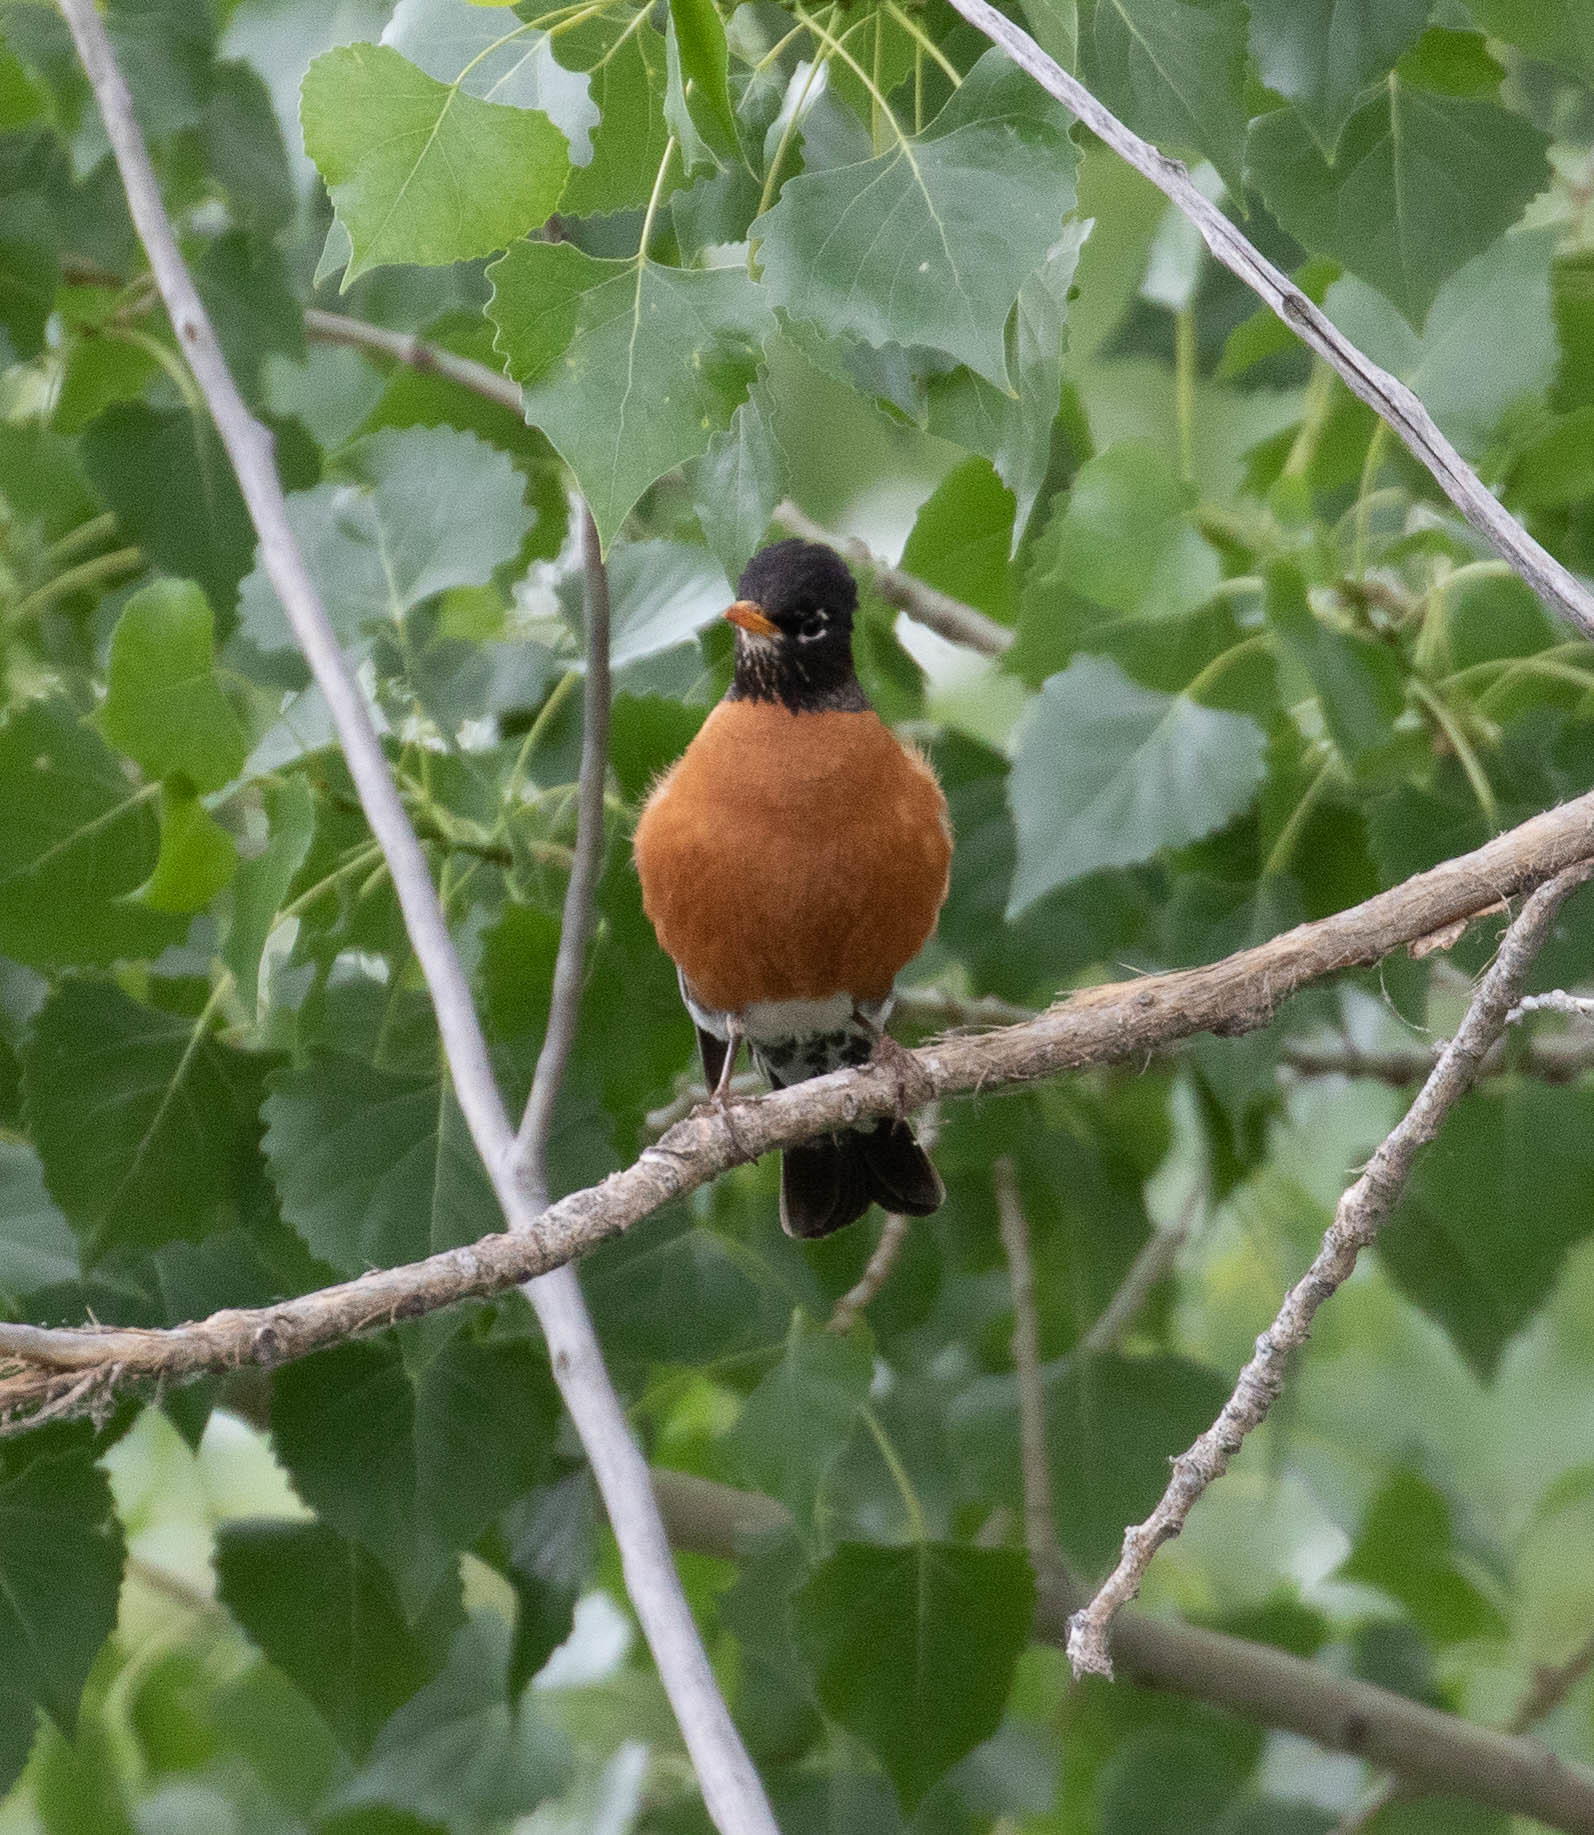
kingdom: Animalia
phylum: Chordata
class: Aves
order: Passeriformes
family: Turdidae
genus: Turdus
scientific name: Turdus migratorius
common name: American robin
